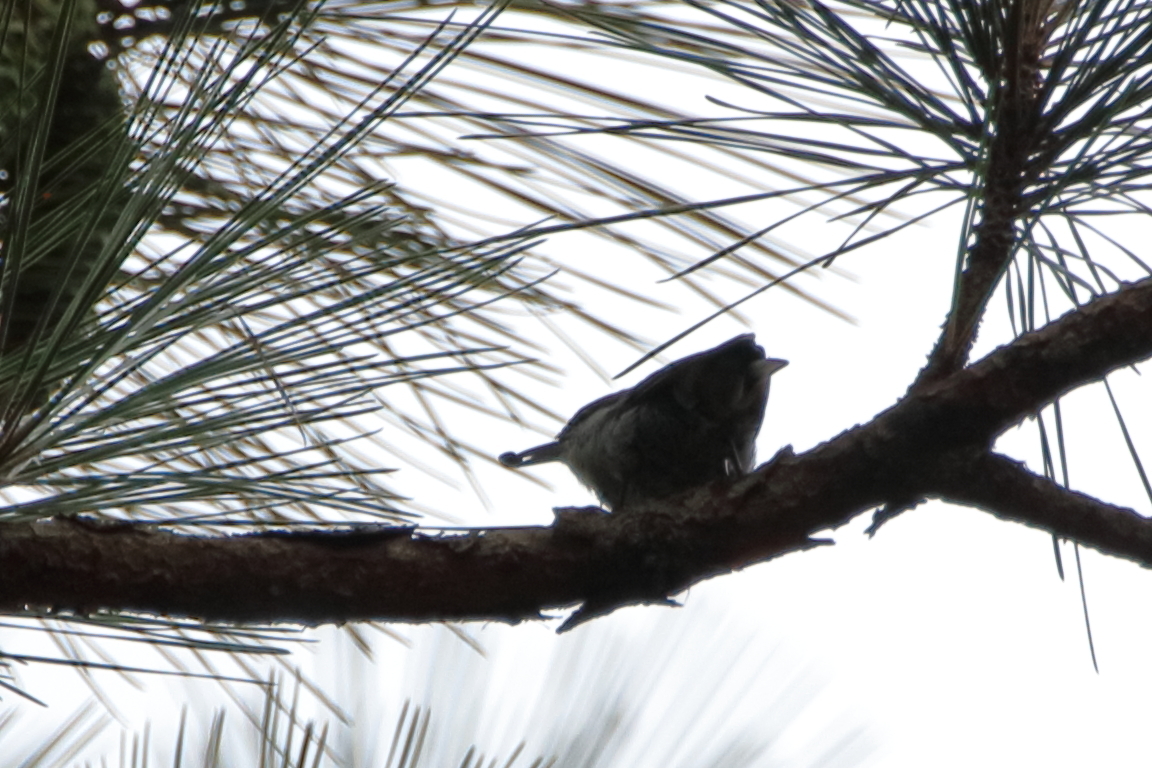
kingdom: Animalia
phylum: Chordata
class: Aves
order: Passeriformes
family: Sittidae
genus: Sitta
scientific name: Sitta pusilla
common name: Brown-headed nuthatch
